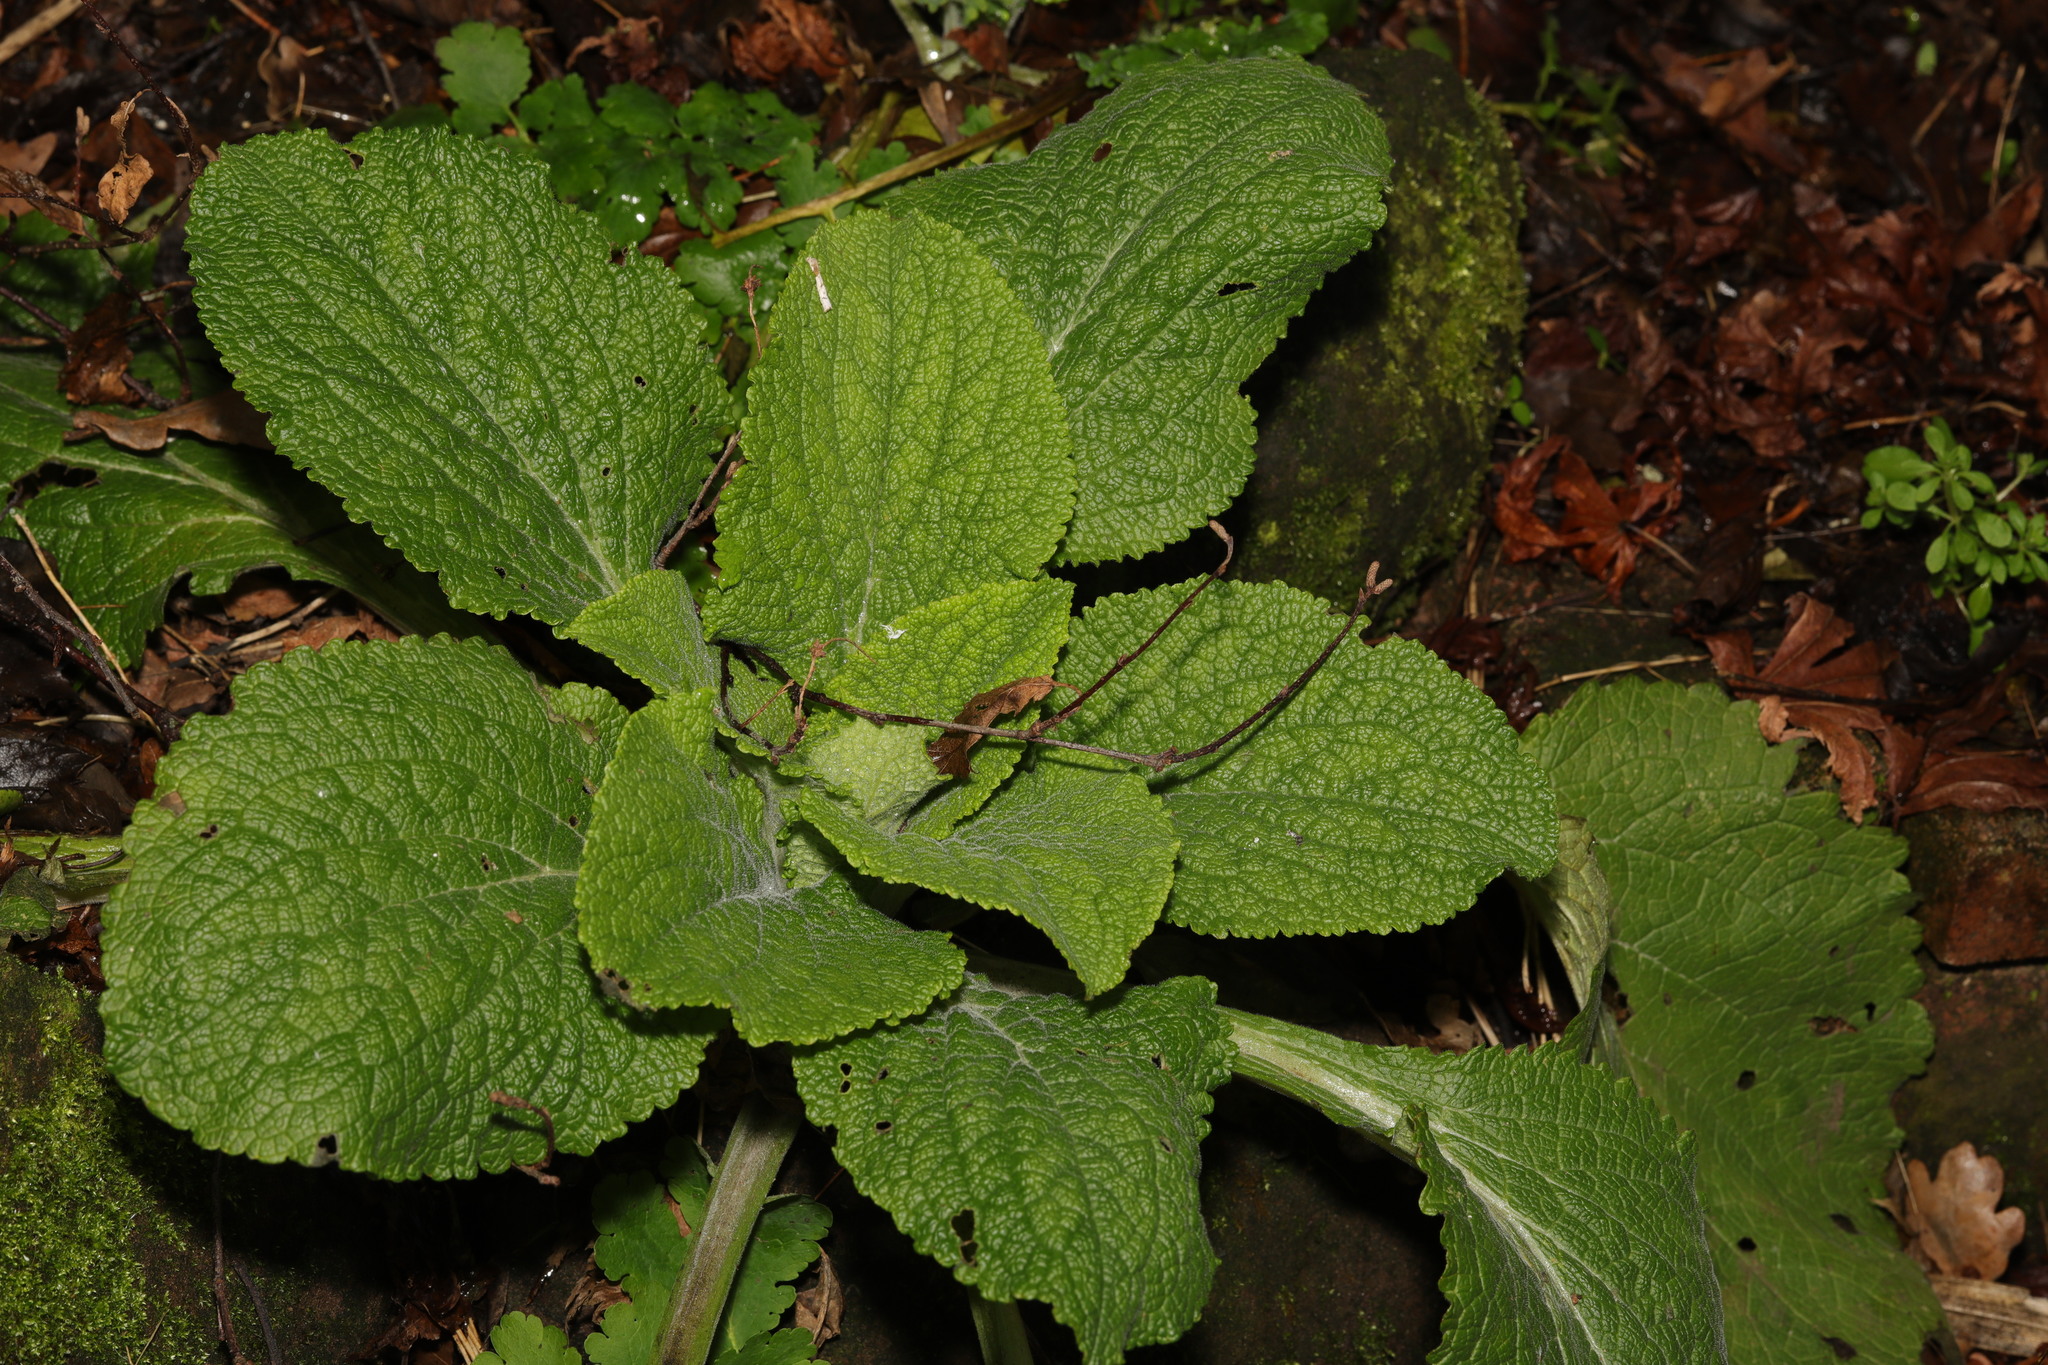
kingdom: Plantae
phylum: Tracheophyta
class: Magnoliopsida
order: Lamiales
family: Plantaginaceae
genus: Digitalis
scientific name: Digitalis purpurea
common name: Foxglove
